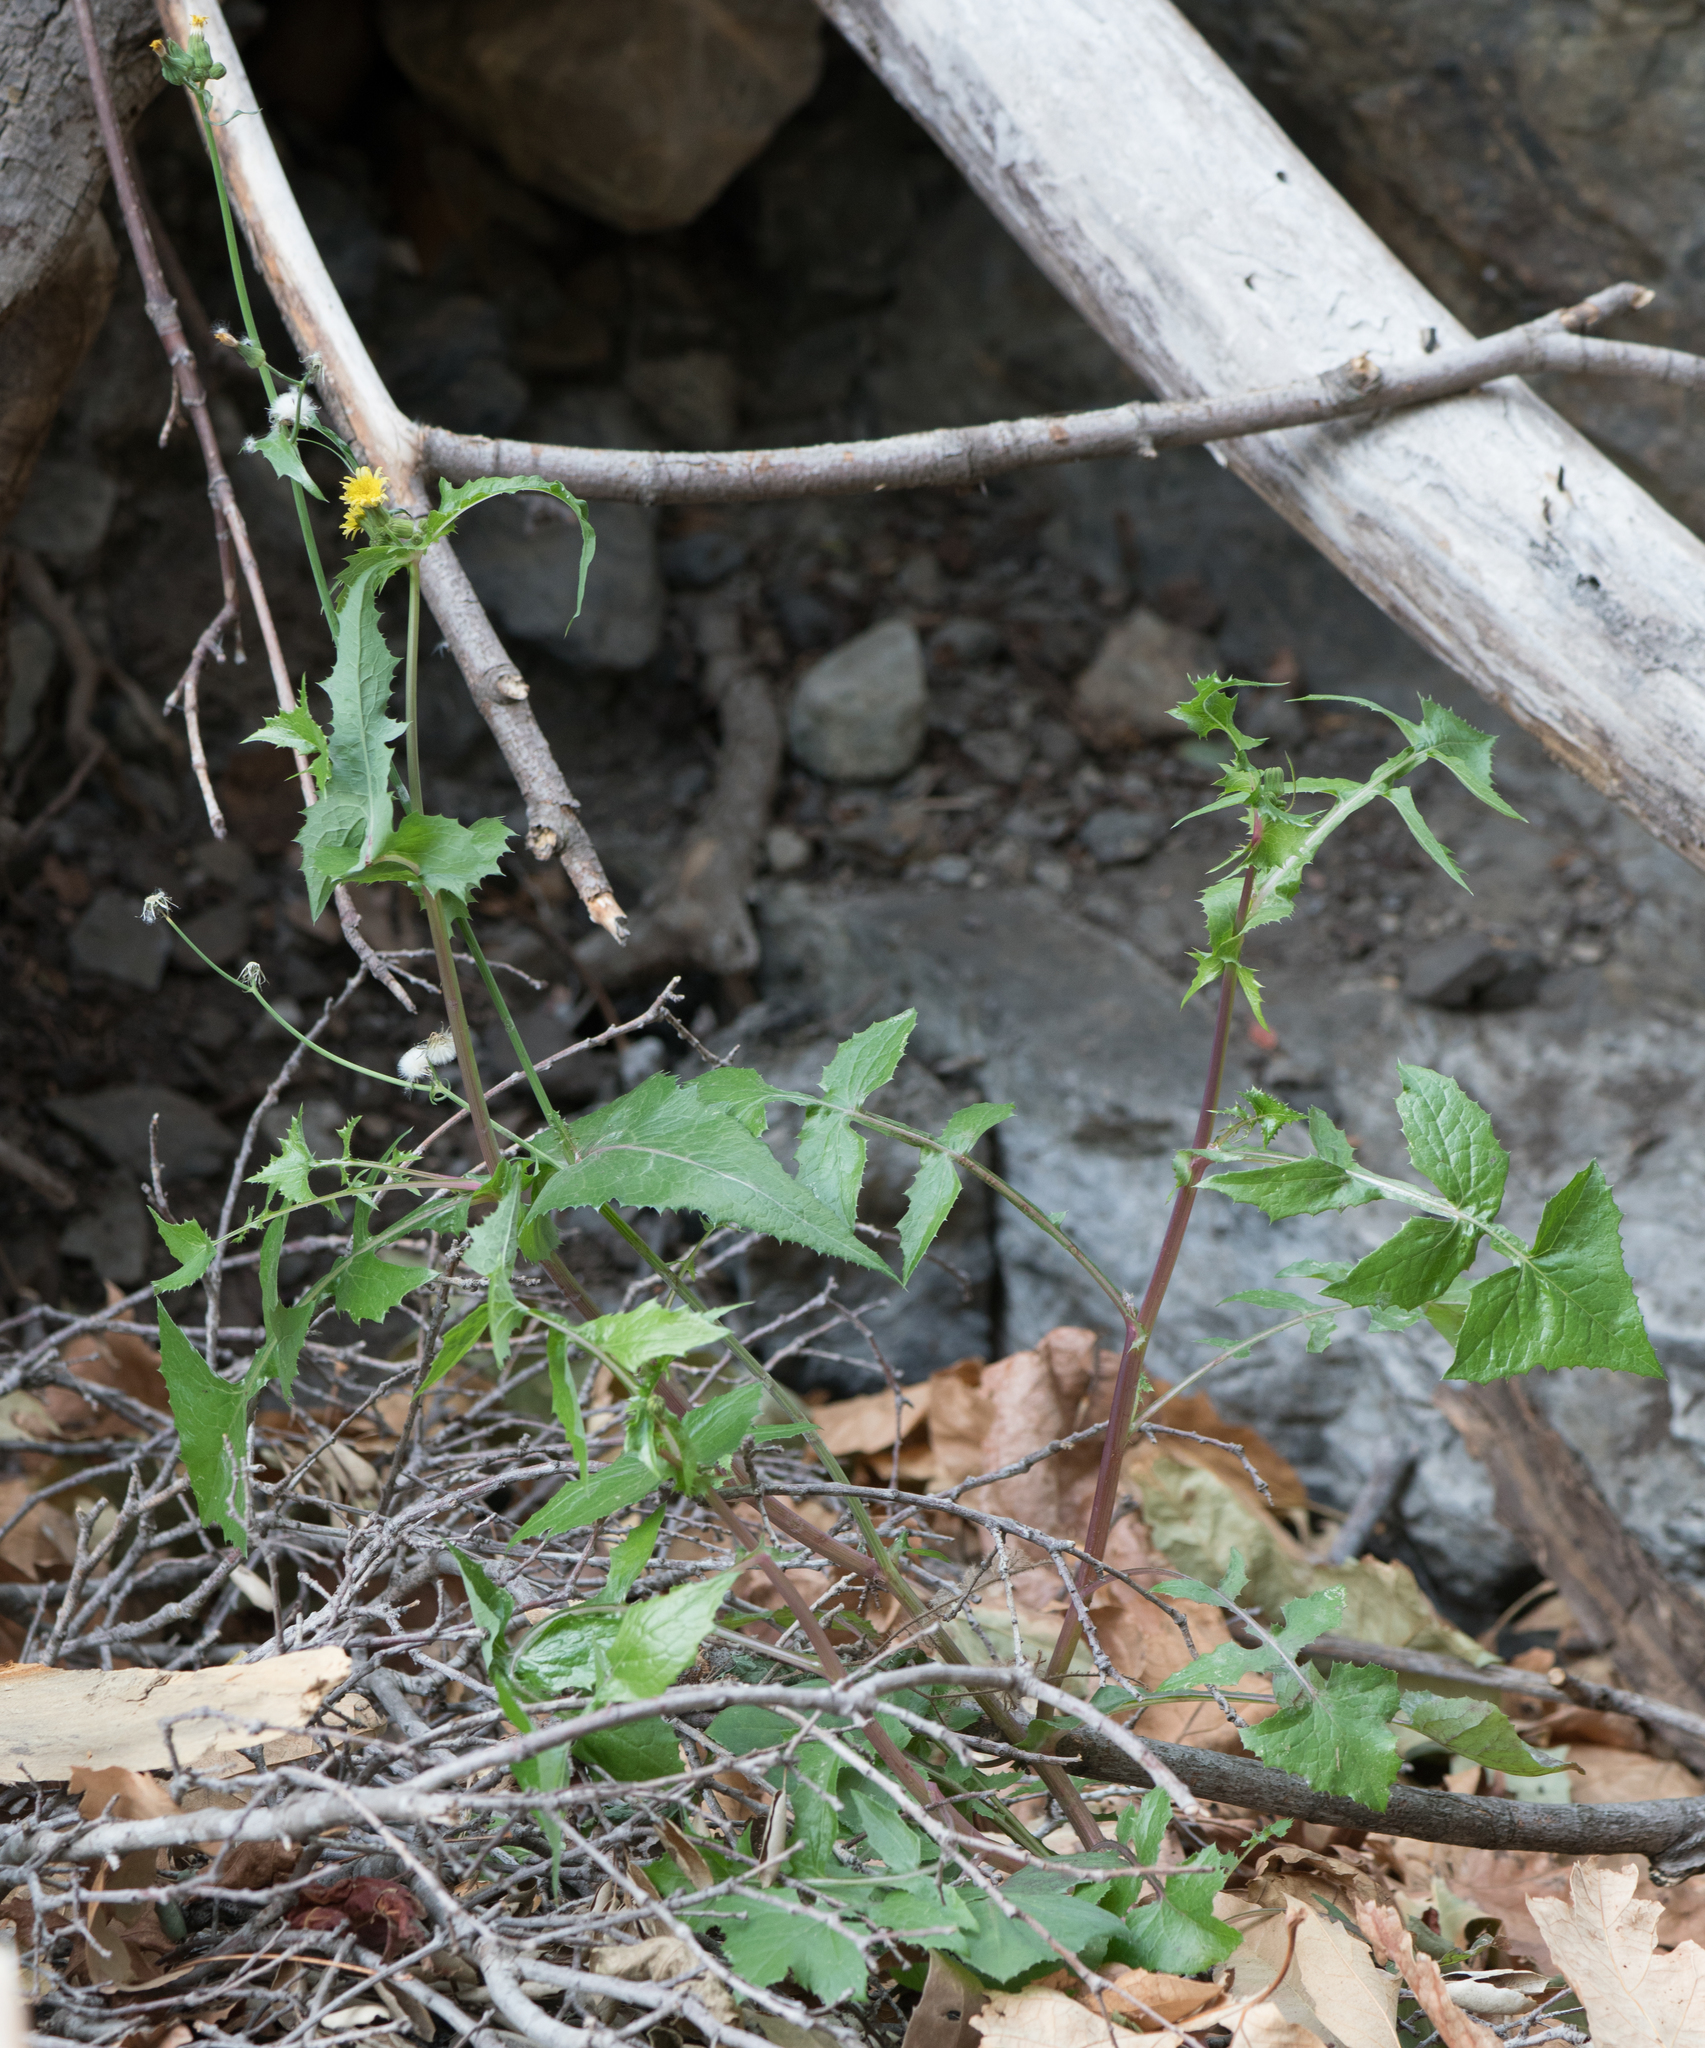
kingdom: Plantae
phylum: Tracheophyta
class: Magnoliopsida
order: Asterales
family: Asteraceae
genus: Sonchus
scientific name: Sonchus oleraceus
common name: Common sowthistle
